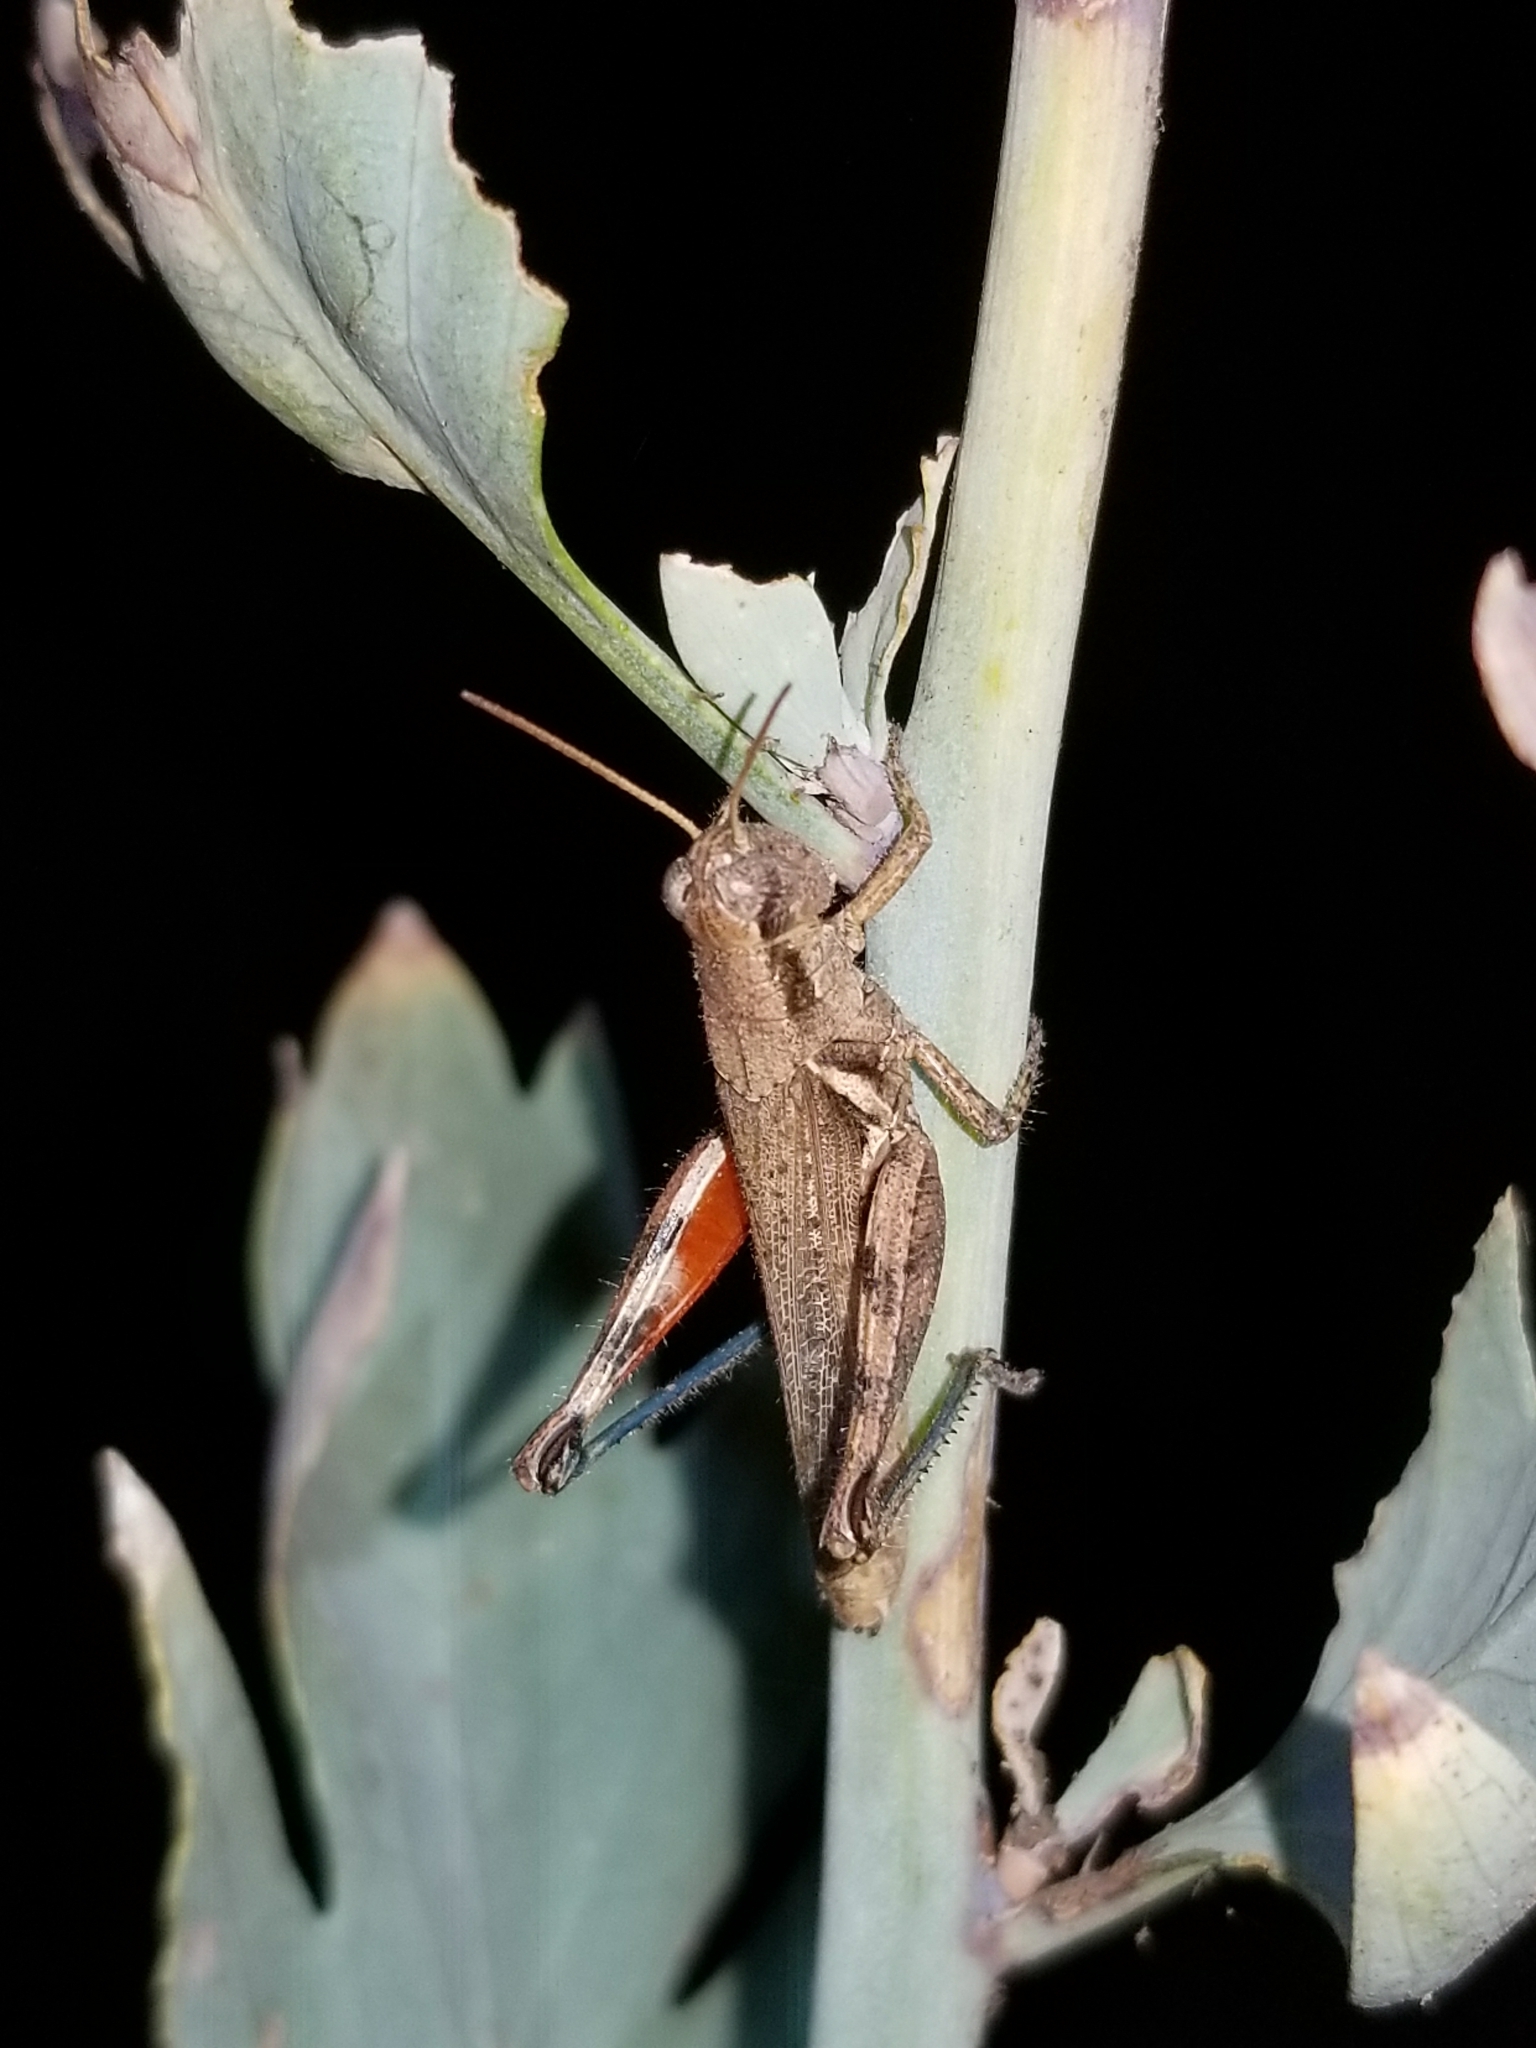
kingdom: Animalia
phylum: Arthropoda
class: Insecta
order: Orthoptera
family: Acrididae
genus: Melanoplus
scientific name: Melanoplus cinereus
